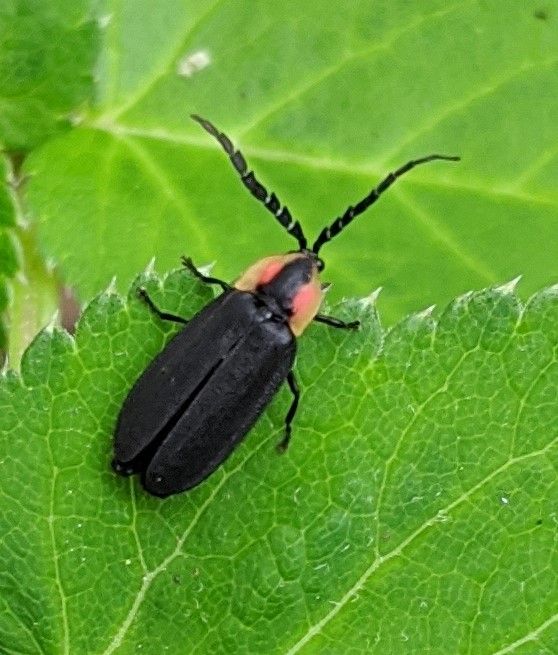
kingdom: Animalia
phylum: Arthropoda
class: Insecta
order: Coleoptera
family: Lampyridae
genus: Lucidota
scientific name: Lucidota atra
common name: Black firefly
